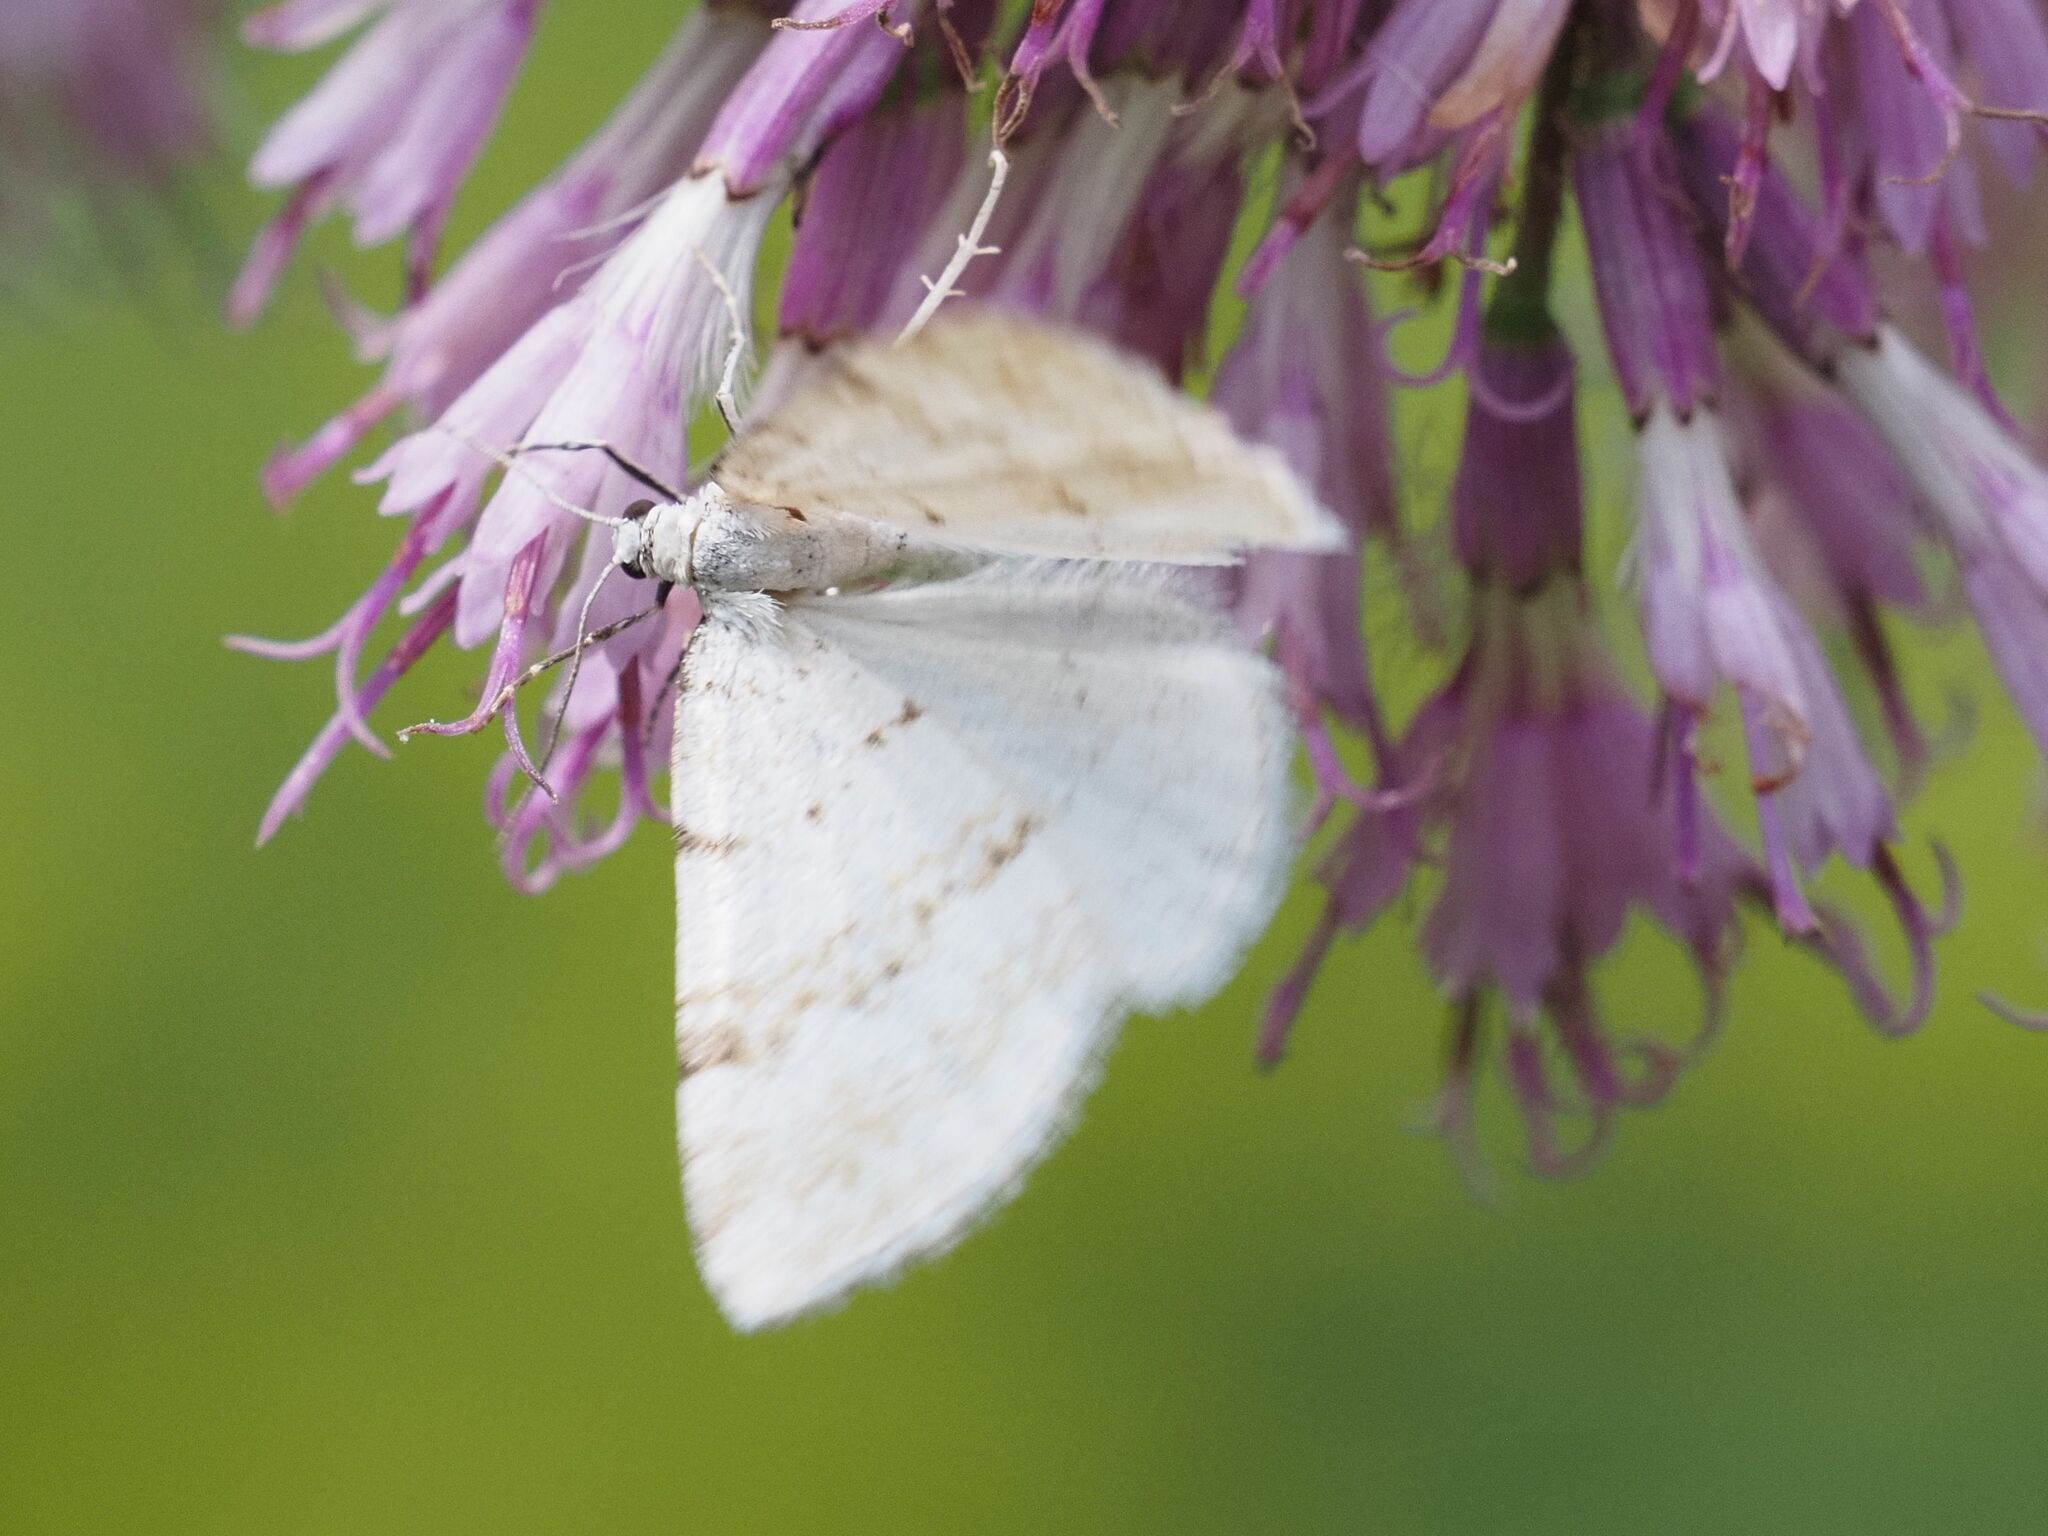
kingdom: Animalia
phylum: Arthropoda
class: Insecta
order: Lepidoptera
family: Geometridae
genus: Perizoma
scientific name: Perizoma albulata
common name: Grass rivulet
